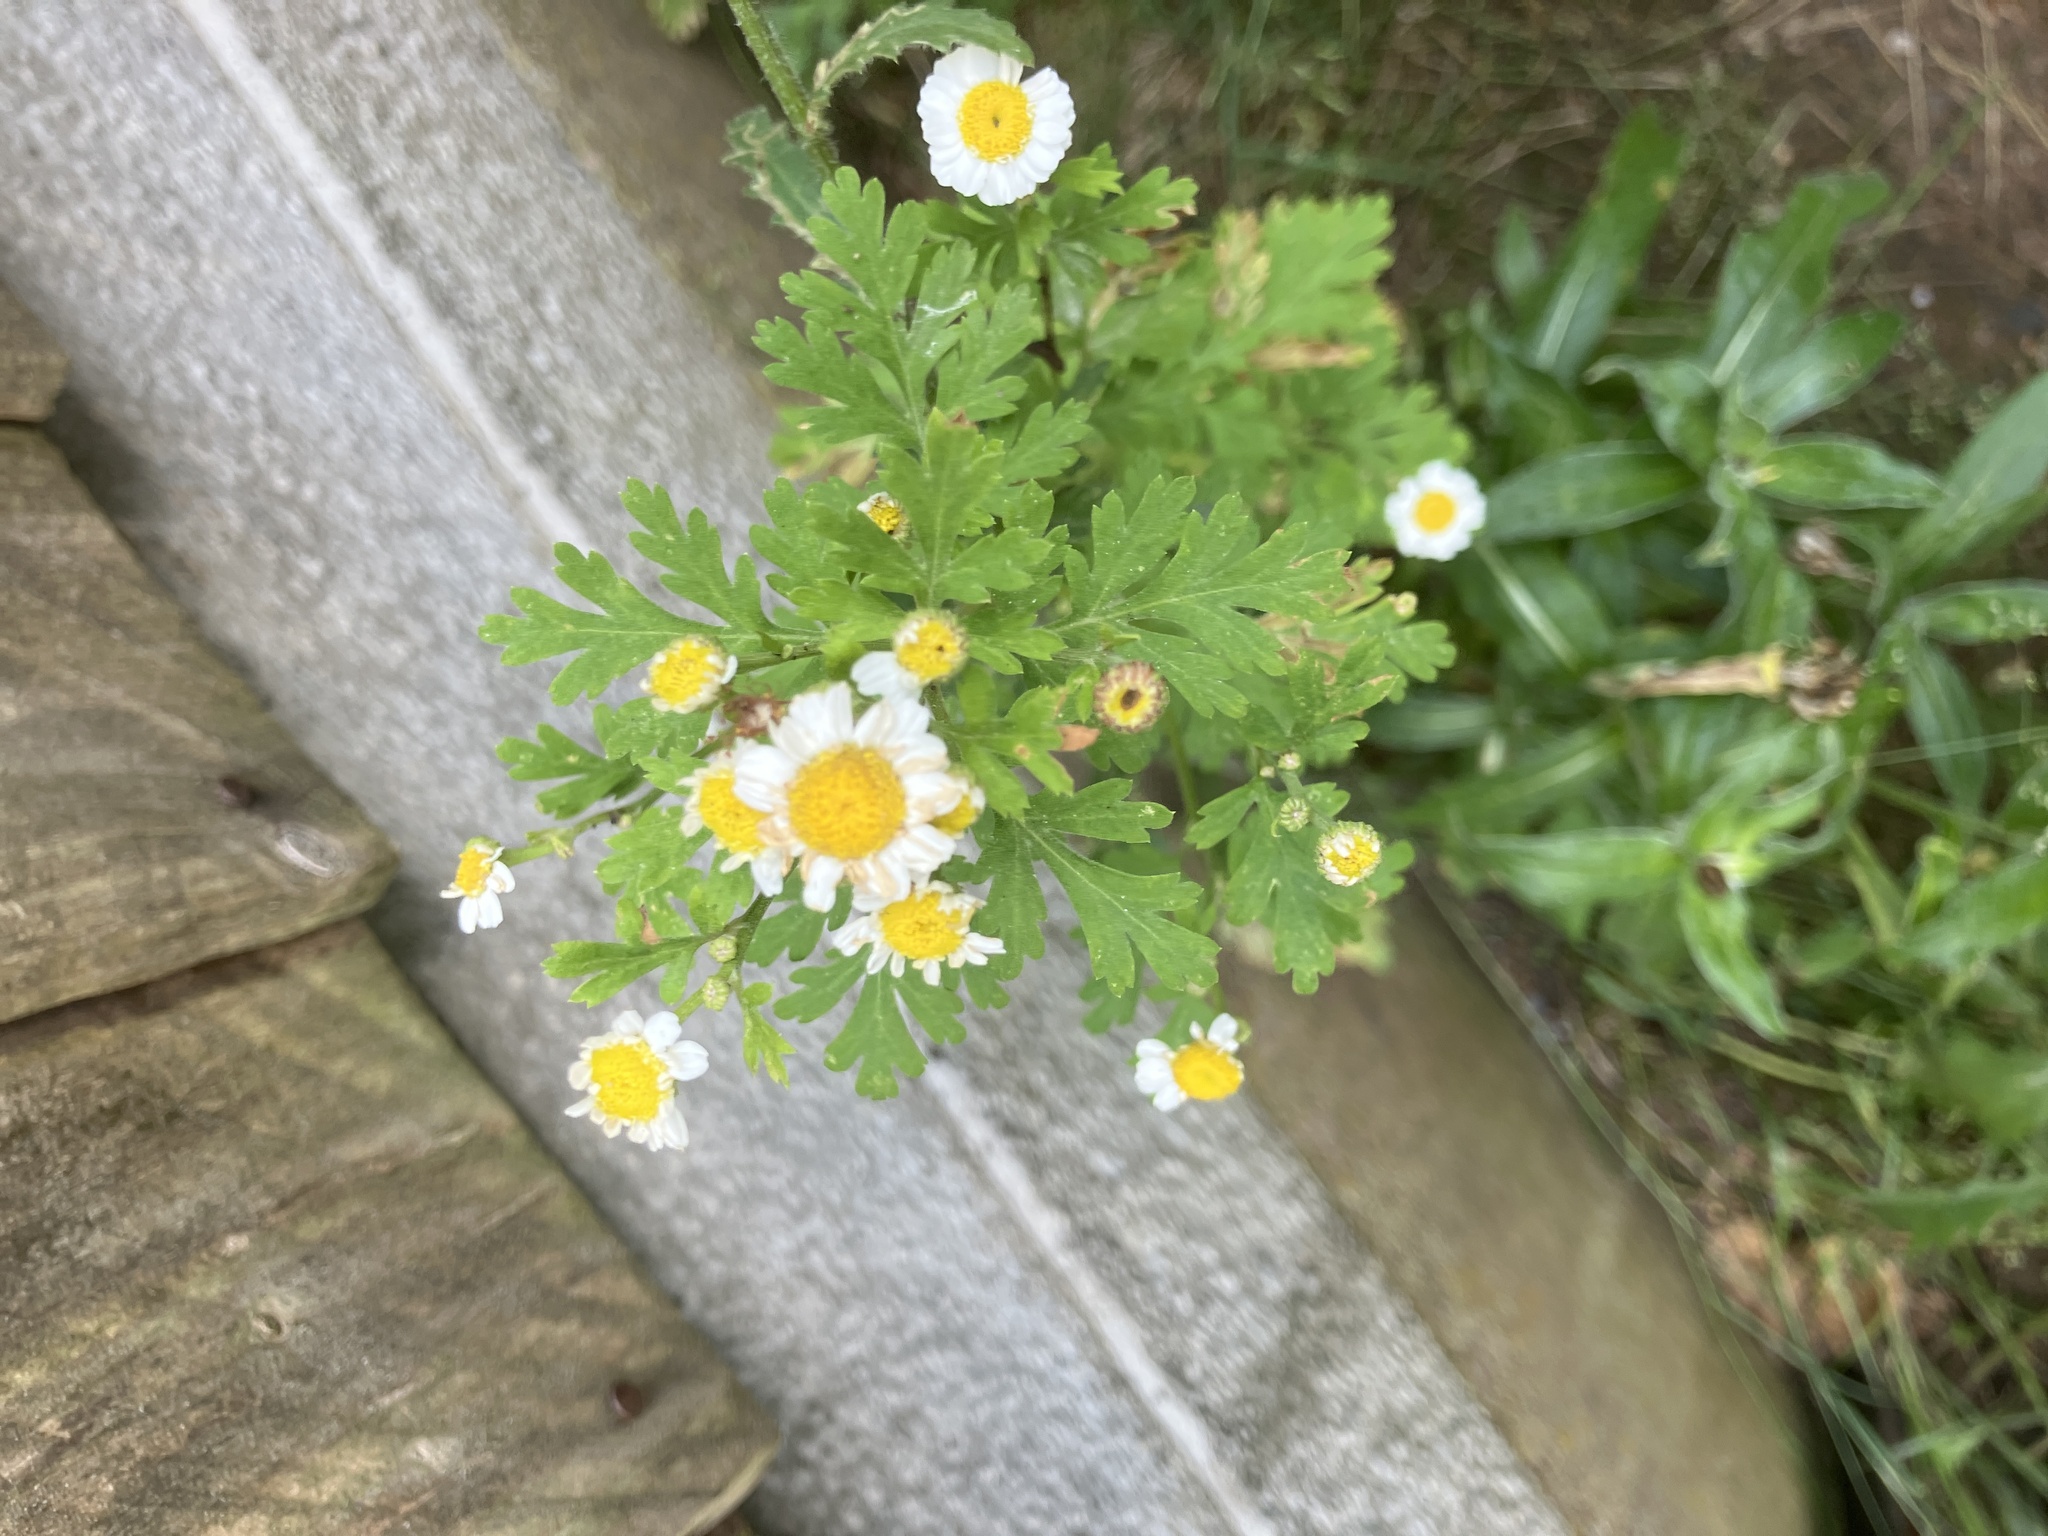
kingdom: Plantae
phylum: Tracheophyta
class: Magnoliopsida
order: Asterales
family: Asteraceae
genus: Tanacetum
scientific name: Tanacetum parthenium
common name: Feverfew
